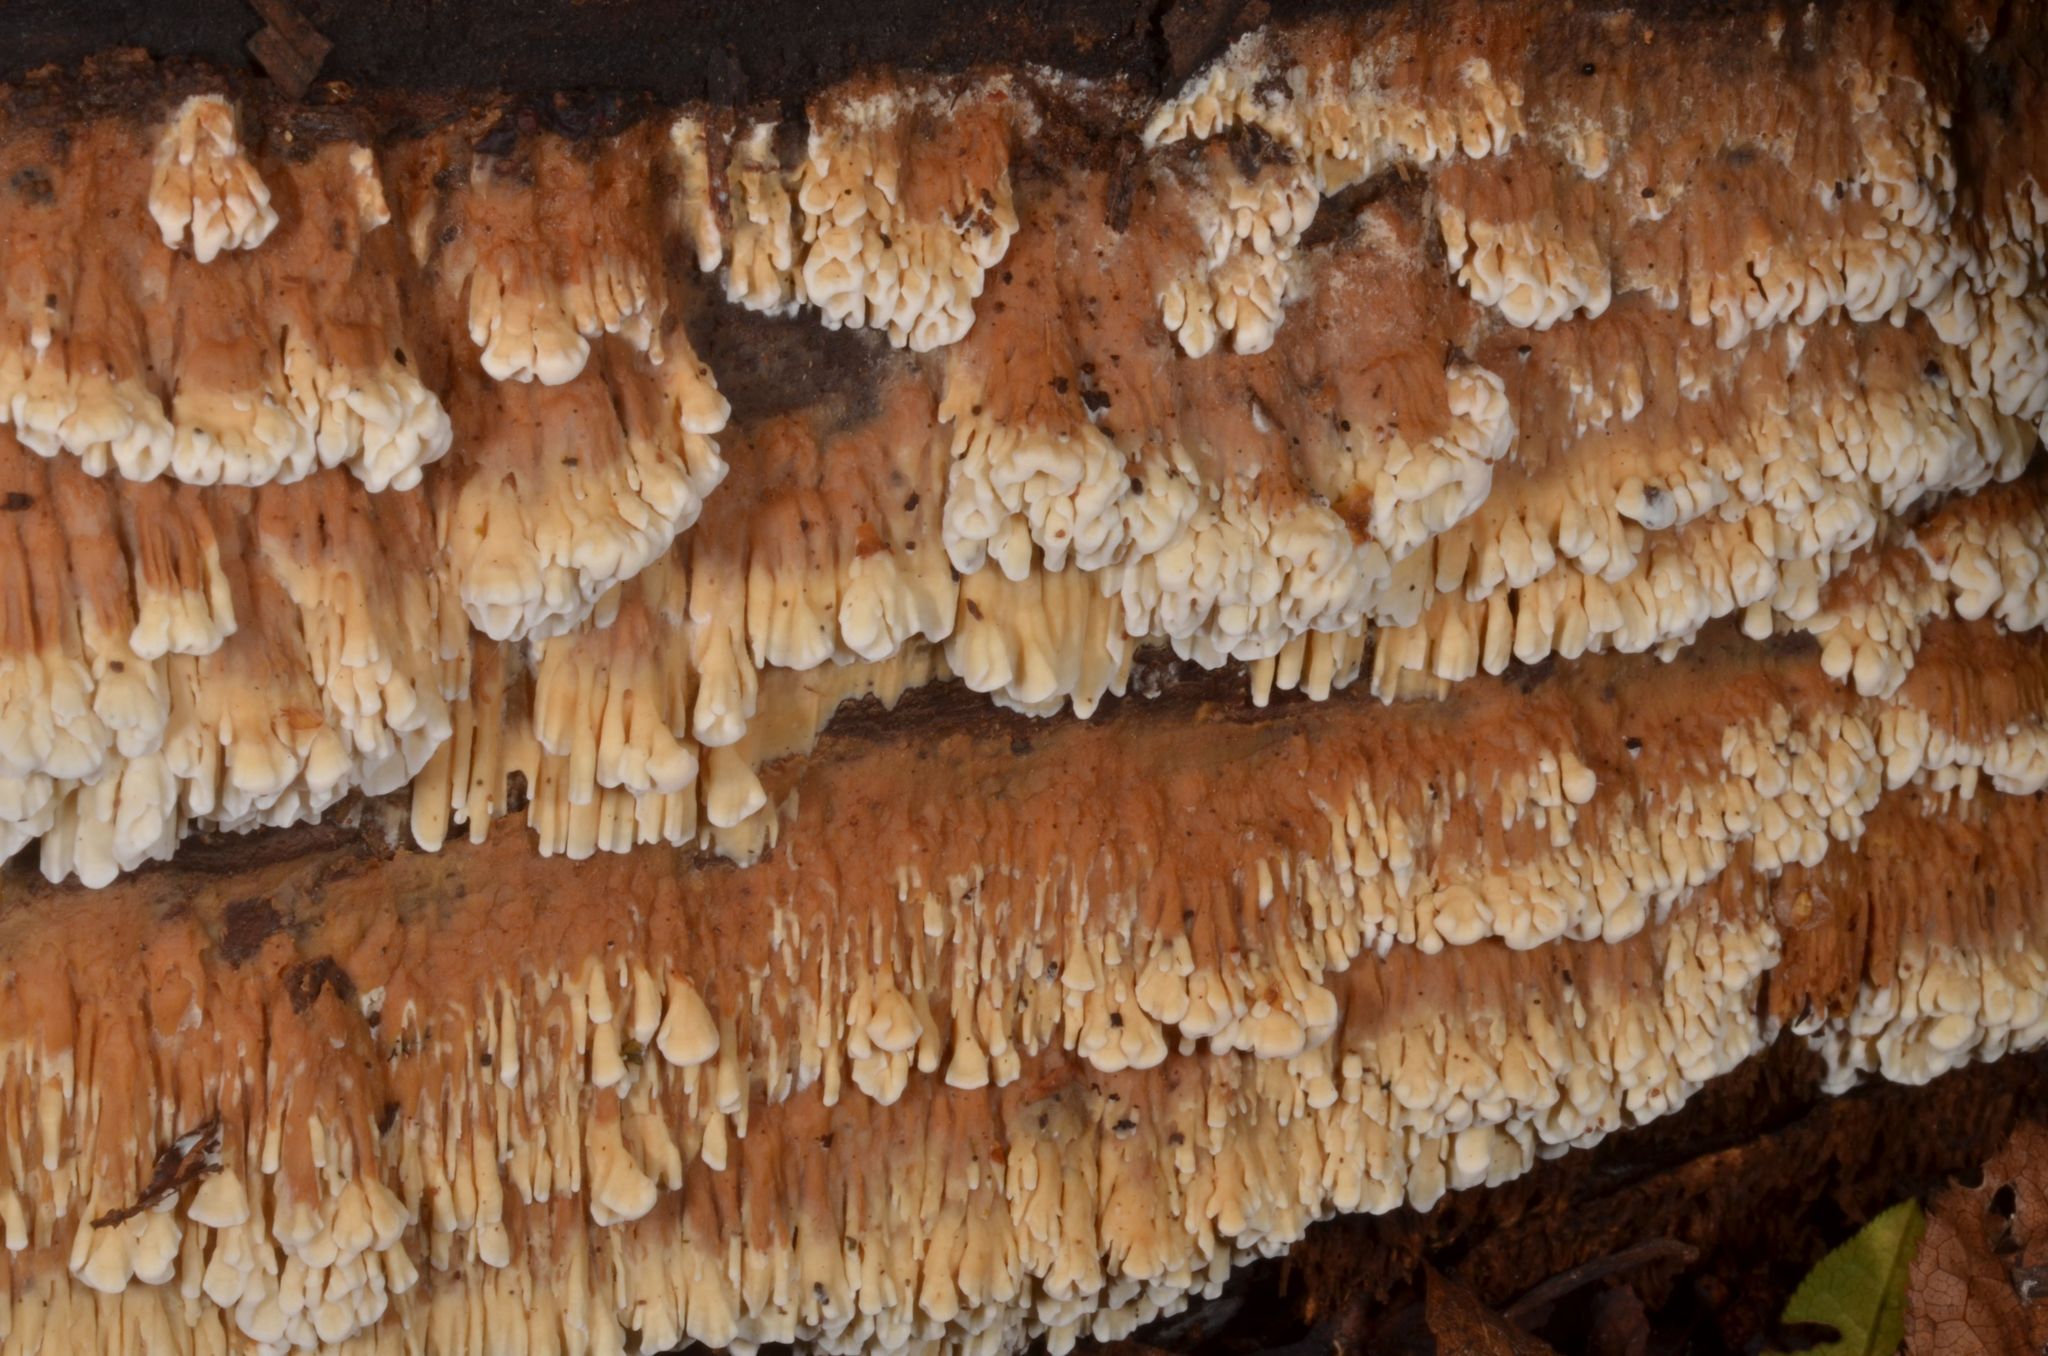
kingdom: Fungi
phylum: Basidiomycota
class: Agaricomycetes
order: Polyporales
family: Polyporaceae
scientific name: Polyporaceae
